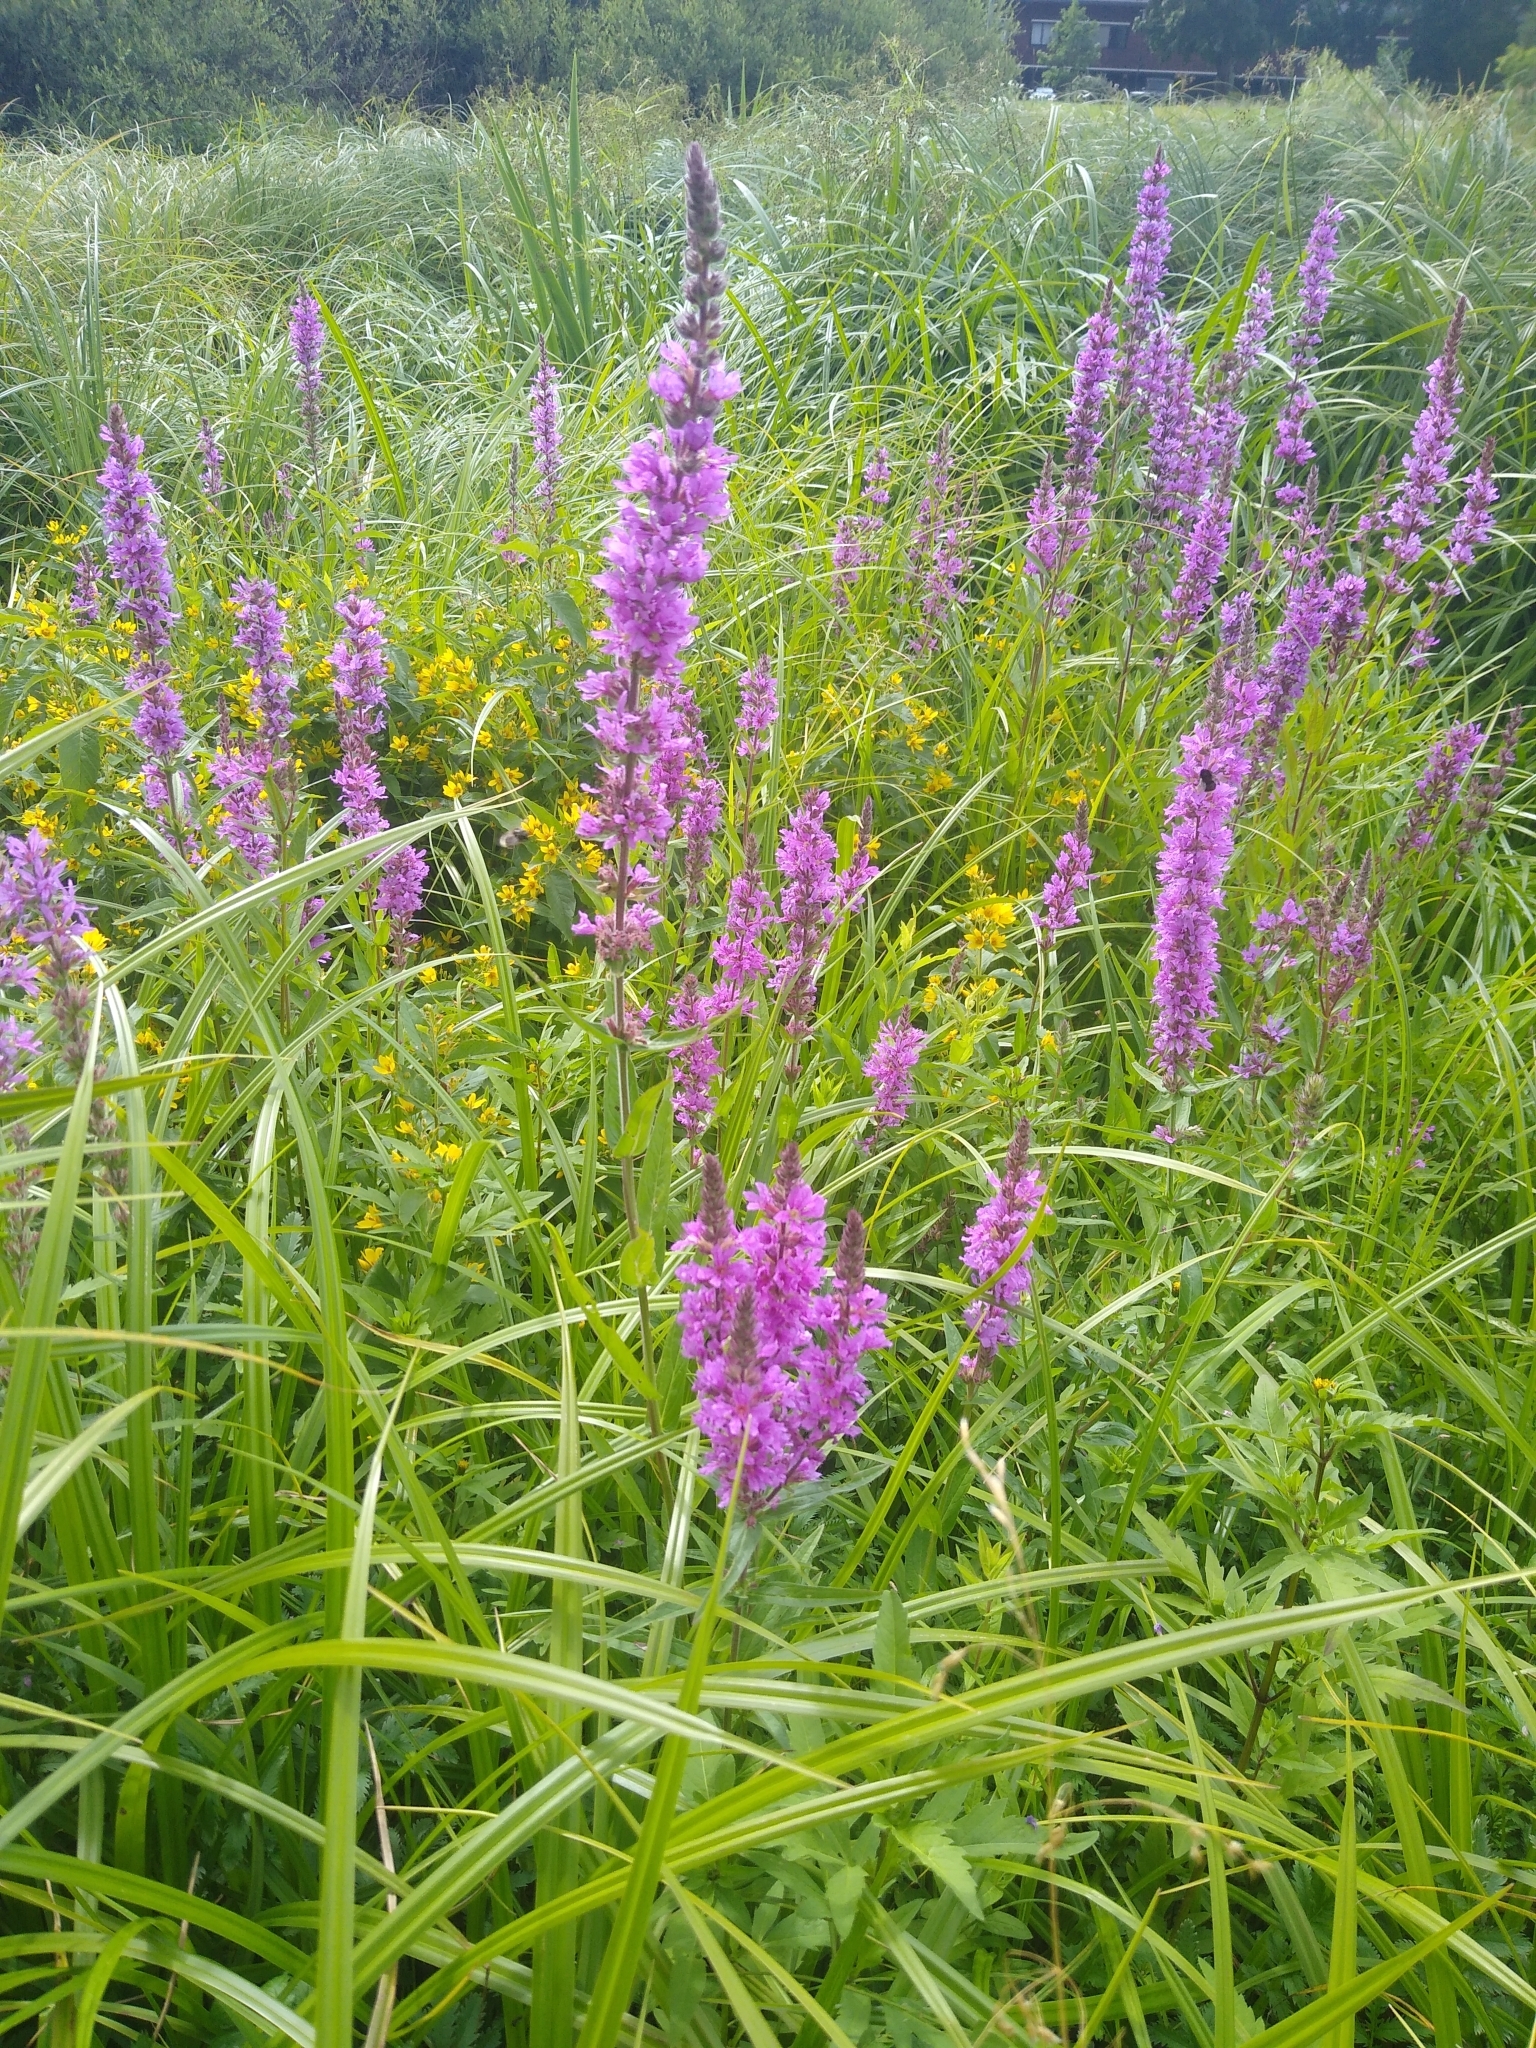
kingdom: Plantae
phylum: Tracheophyta
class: Magnoliopsida
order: Myrtales
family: Lythraceae
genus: Lythrum
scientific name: Lythrum salicaria
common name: Purple loosestrife
